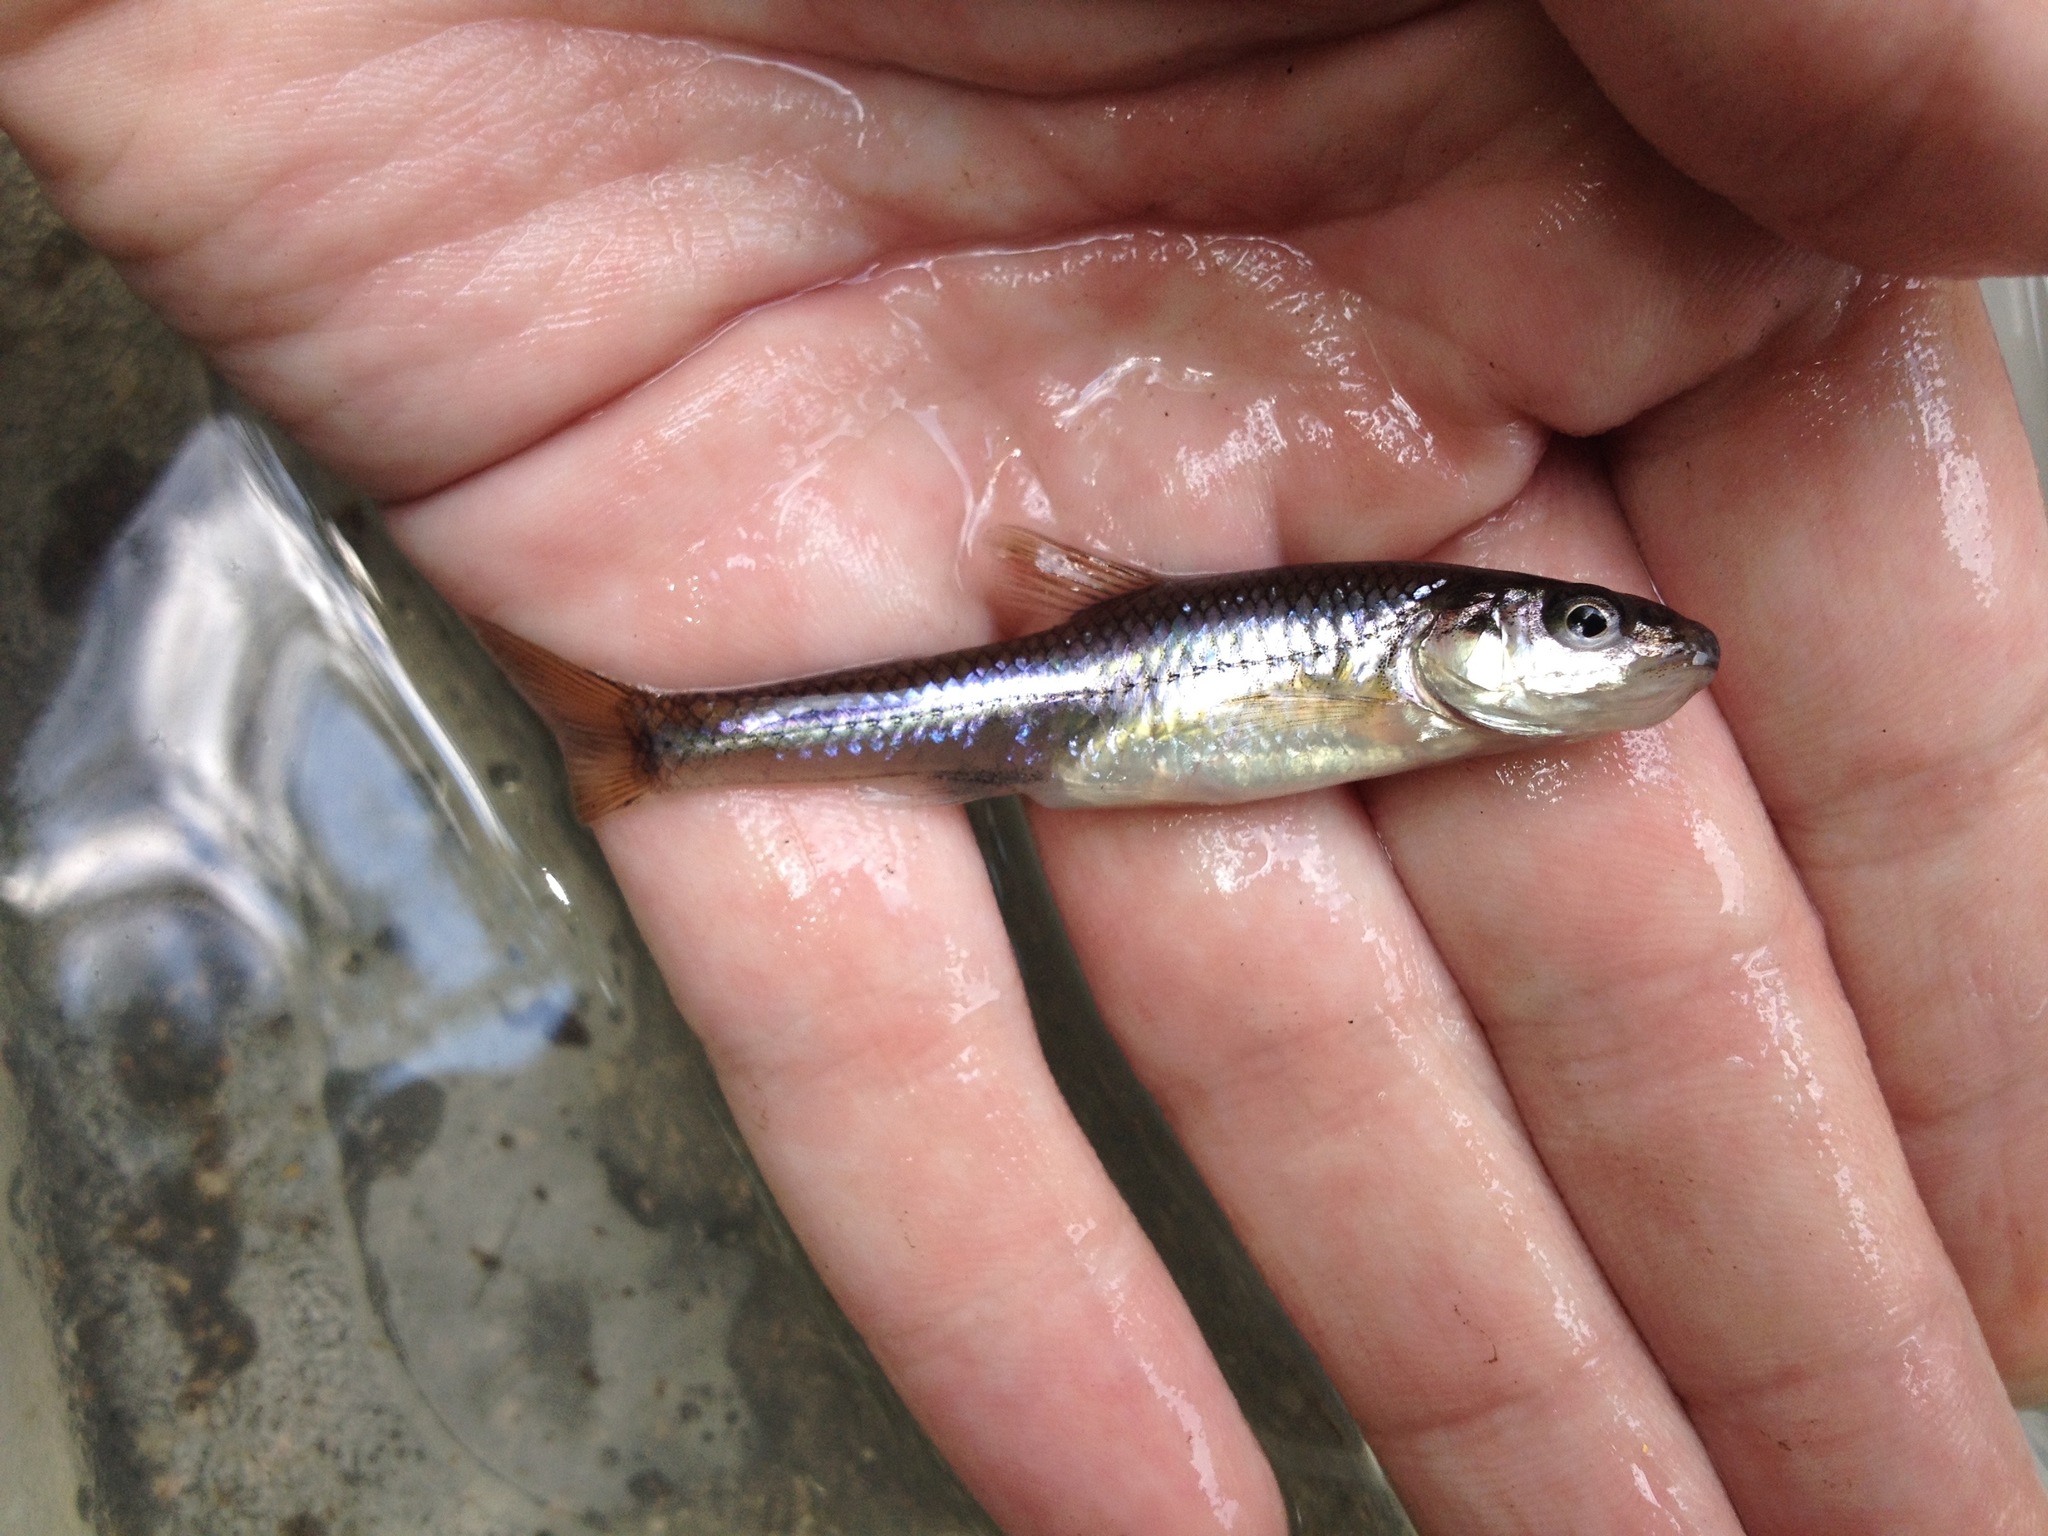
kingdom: Animalia
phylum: Chordata
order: Cypriniformes
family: Cyprinidae
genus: Ericymba
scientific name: Ericymba
